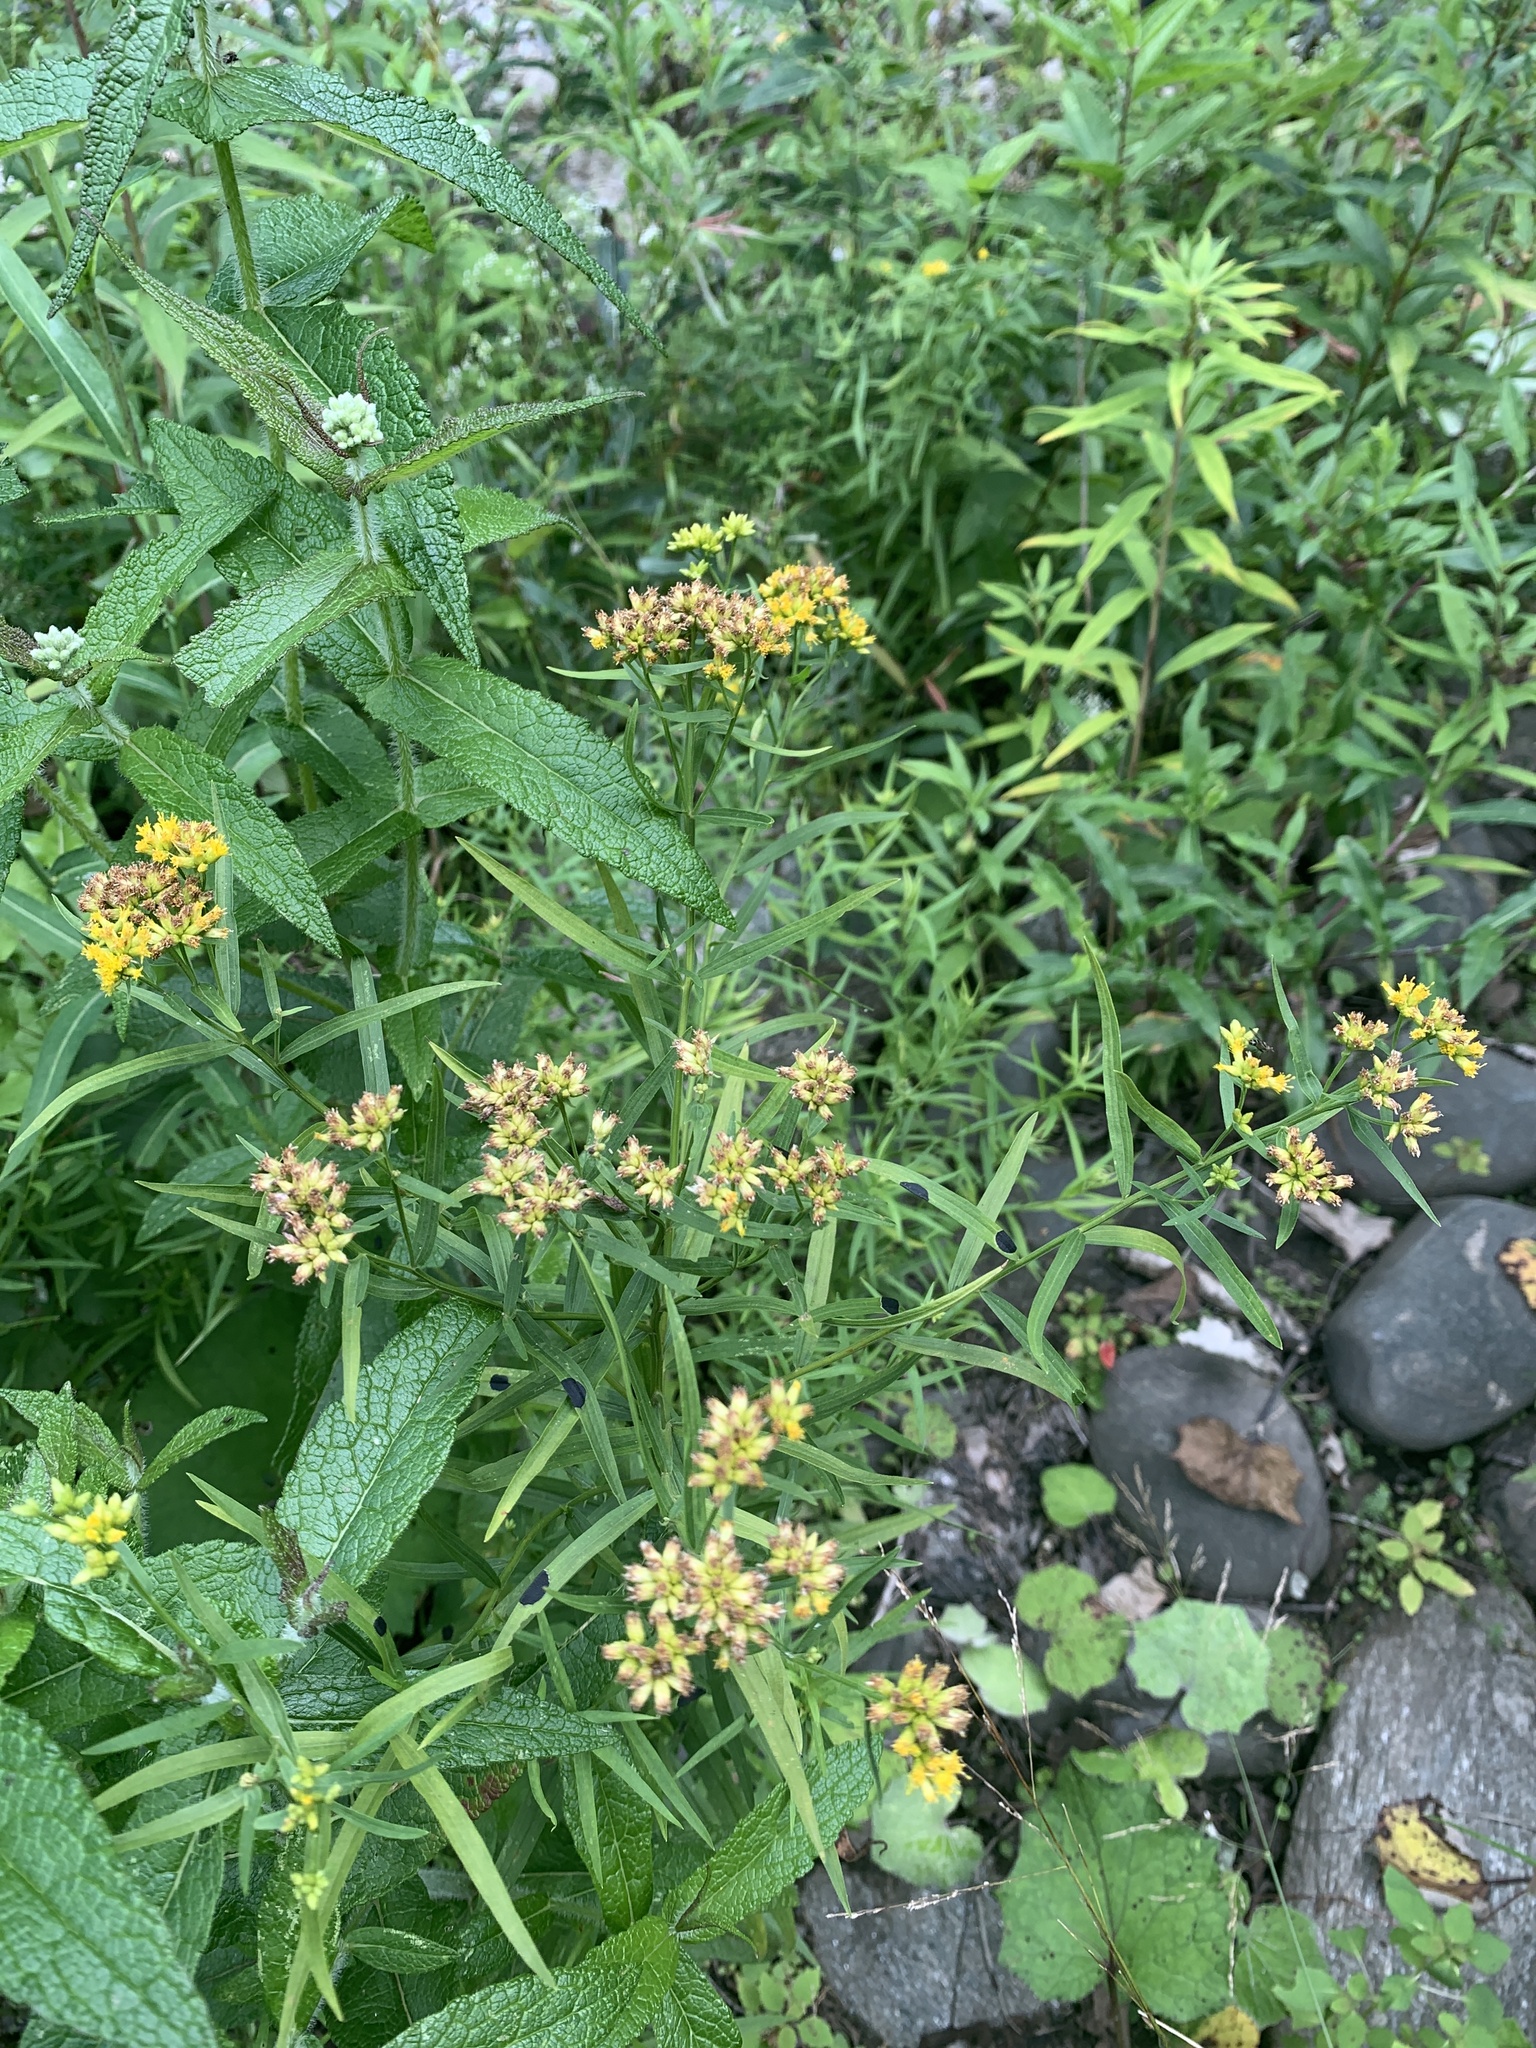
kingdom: Plantae
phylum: Tracheophyta
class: Magnoliopsida
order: Asterales
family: Asteraceae
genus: Euthamia
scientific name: Euthamia graminifolia
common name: Common goldentop
